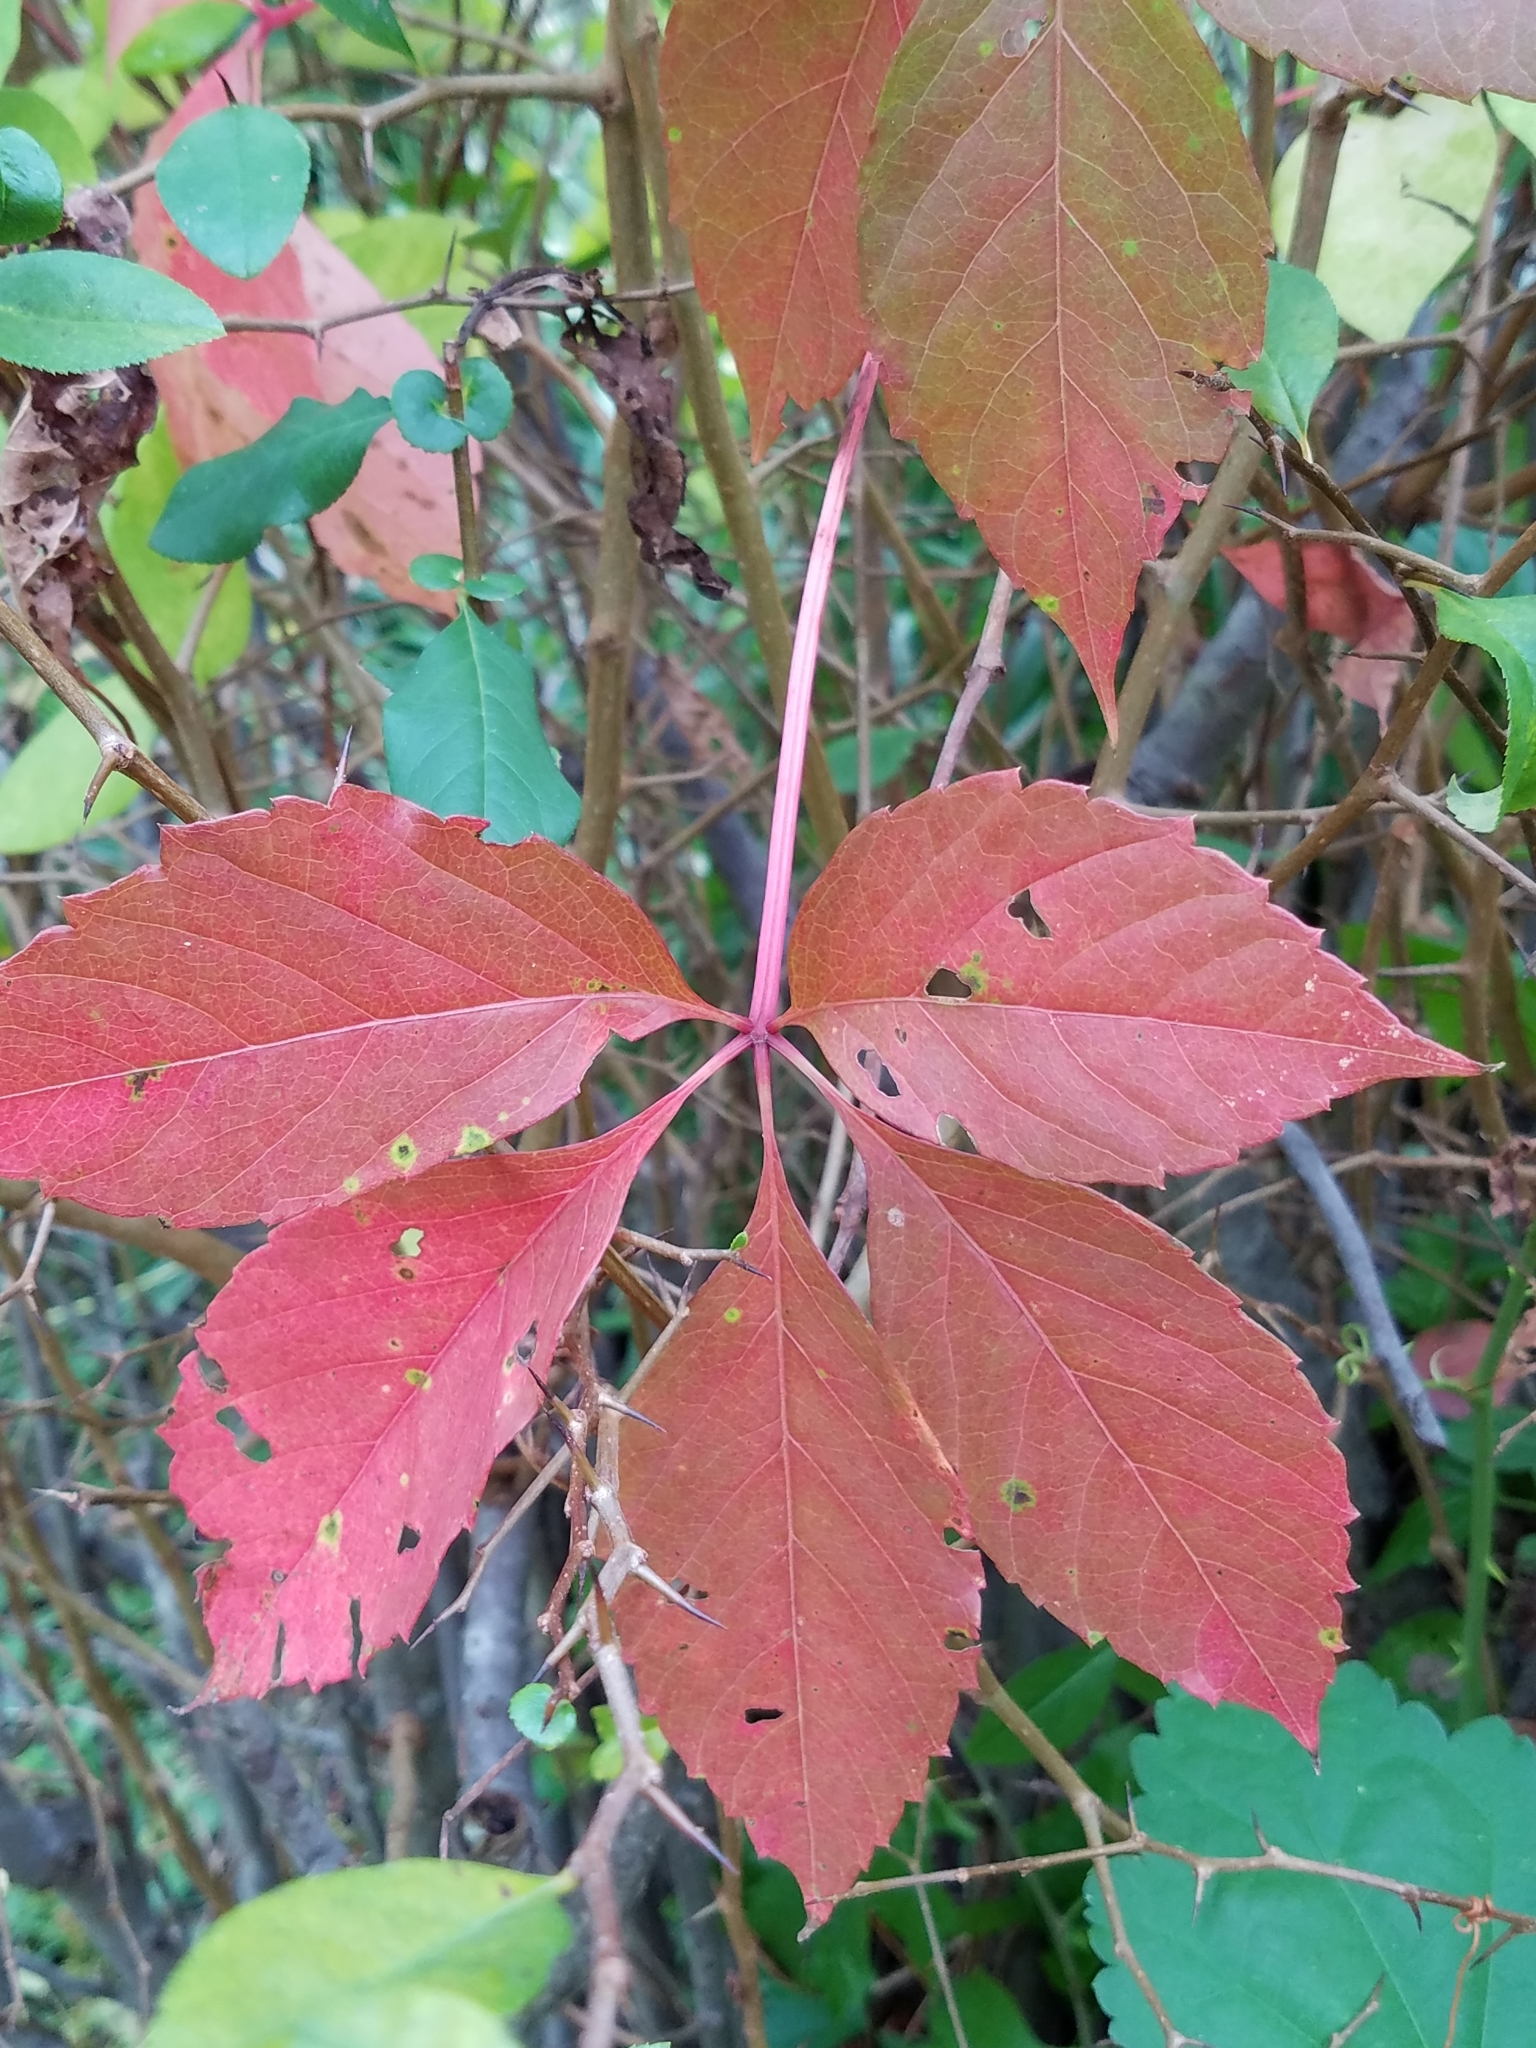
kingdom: Plantae
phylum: Tracheophyta
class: Magnoliopsida
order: Vitales
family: Vitaceae
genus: Parthenocissus
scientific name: Parthenocissus quinquefolia
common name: Virginia-creeper
